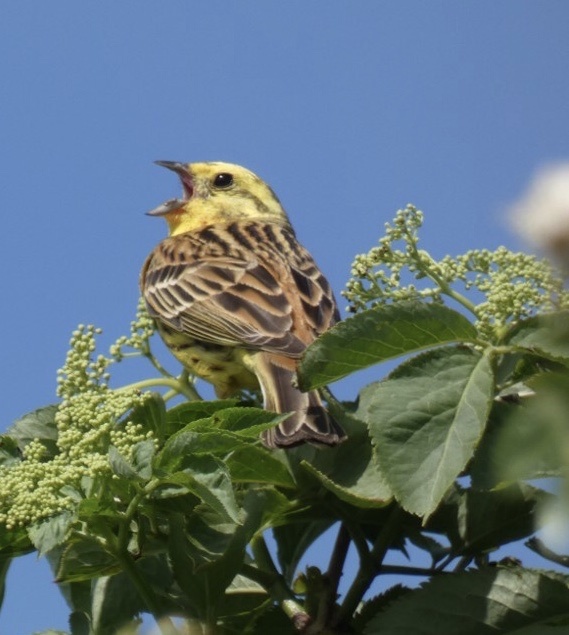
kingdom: Animalia
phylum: Chordata
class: Aves
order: Passeriformes
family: Emberizidae
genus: Emberiza
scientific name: Emberiza citrinella
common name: Yellowhammer
